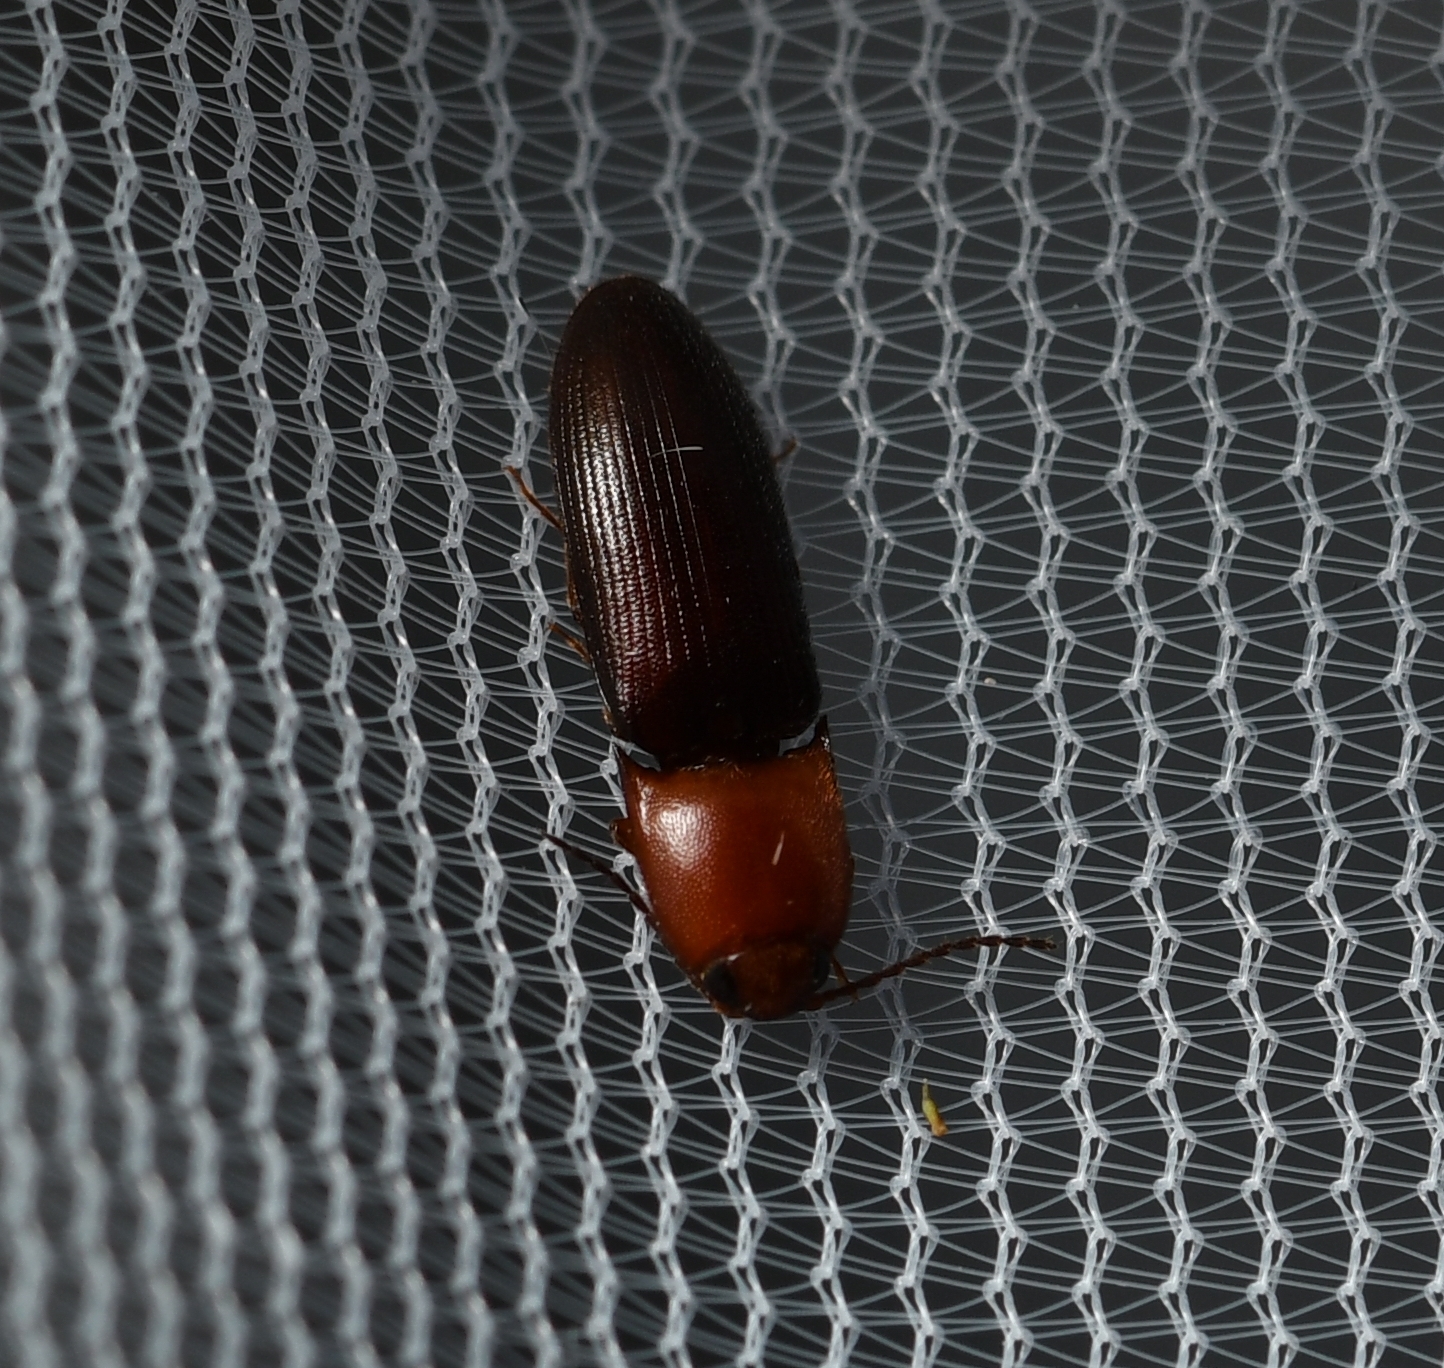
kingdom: Animalia
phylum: Arthropoda
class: Insecta
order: Coleoptera
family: Elateridae
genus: Anchastus
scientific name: Anchastus
